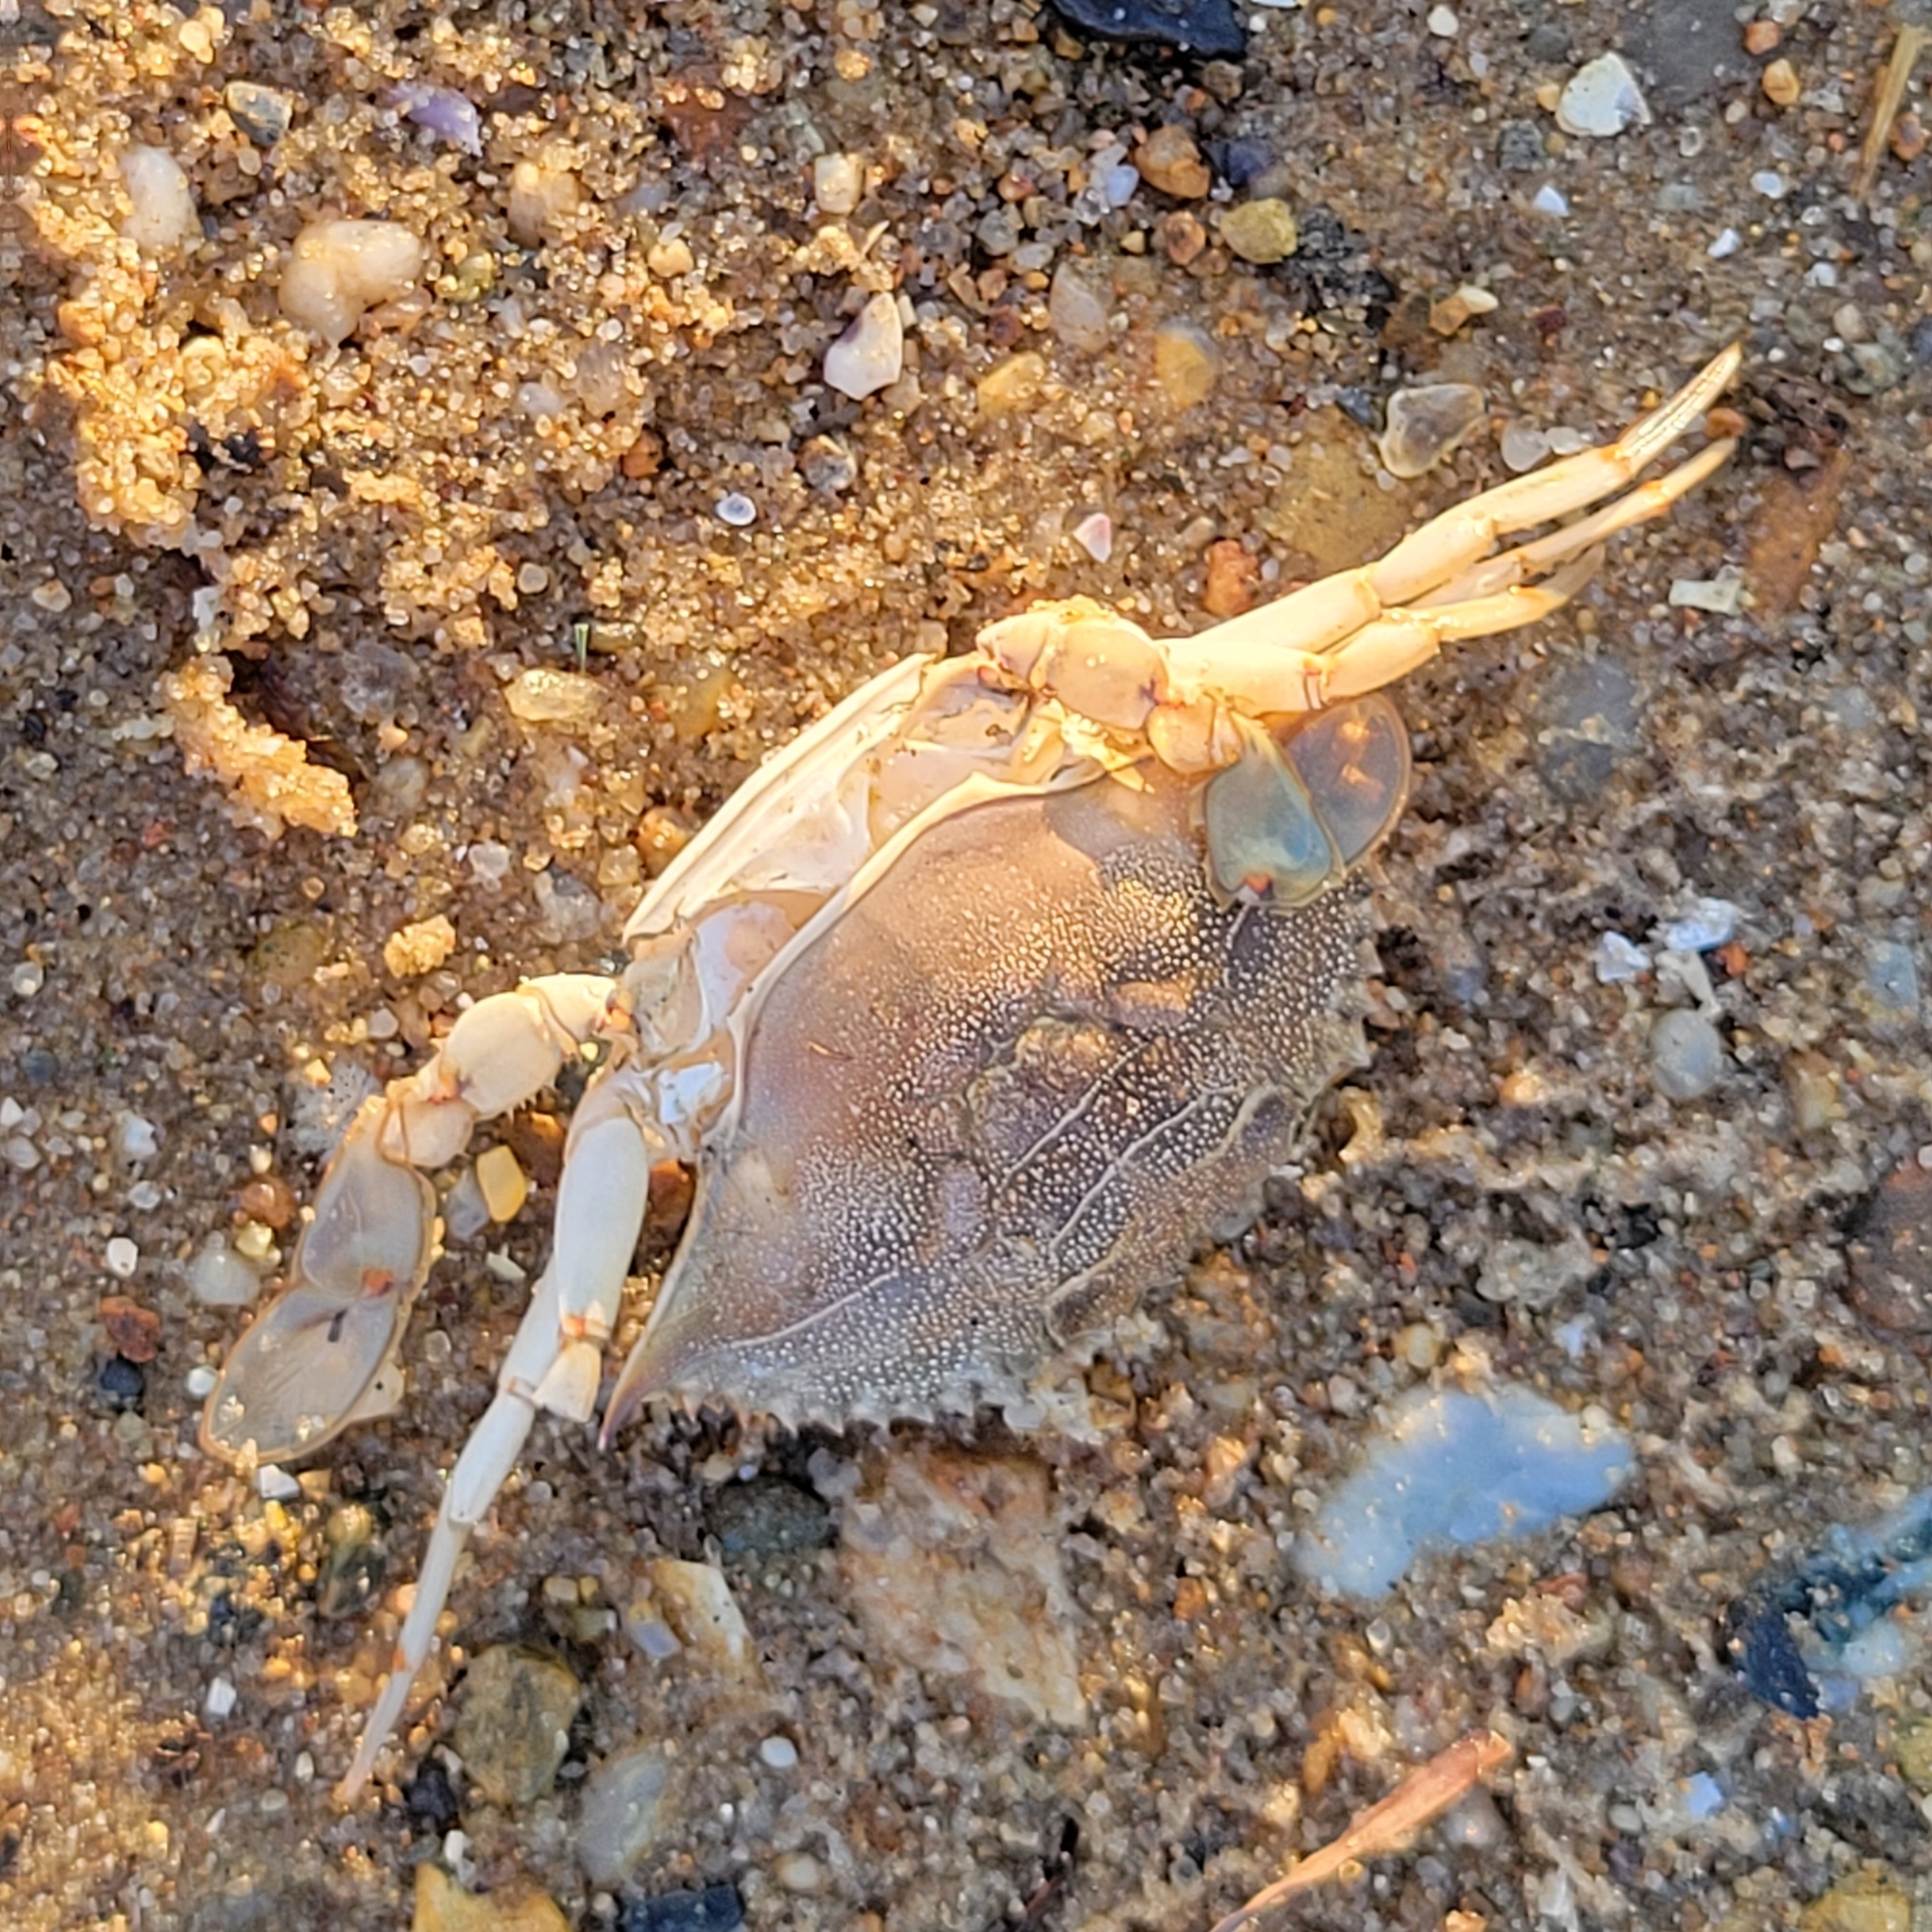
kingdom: Animalia
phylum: Arthropoda
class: Malacostraca
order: Decapoda
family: Portunidae
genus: Callinectes
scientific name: Callinectes sapidus
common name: Blue crab
